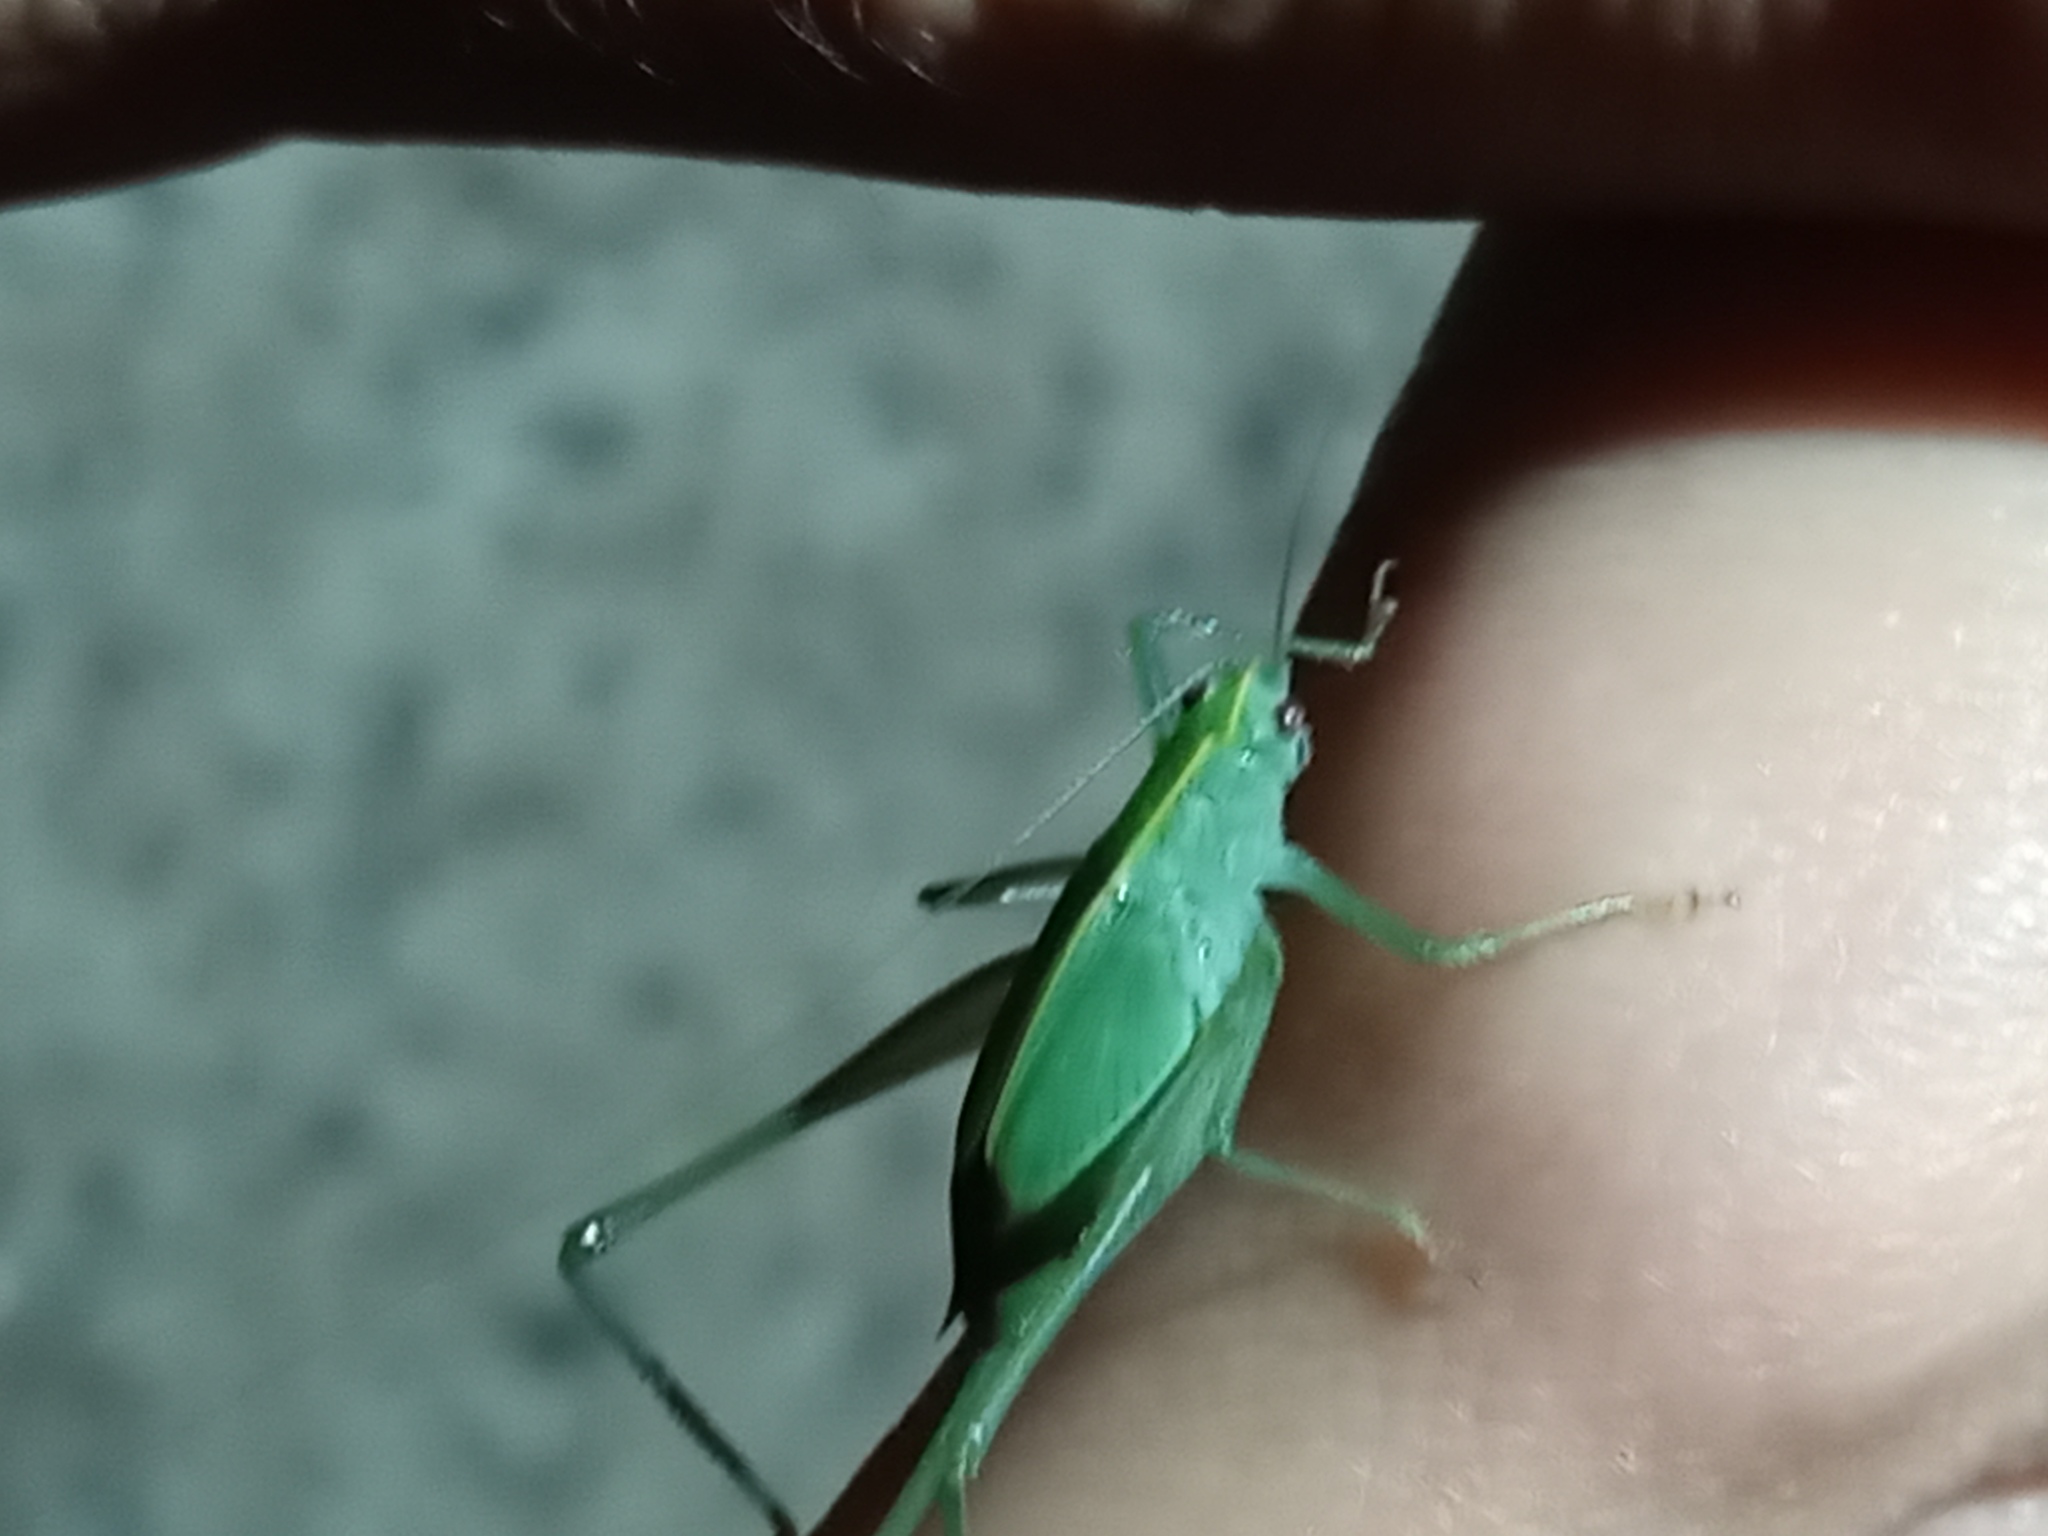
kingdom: Animalia
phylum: Arthropoda
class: Insecta
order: Orthoptera
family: Tettigoniidae
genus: Grammadera
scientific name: Grammadera clara
